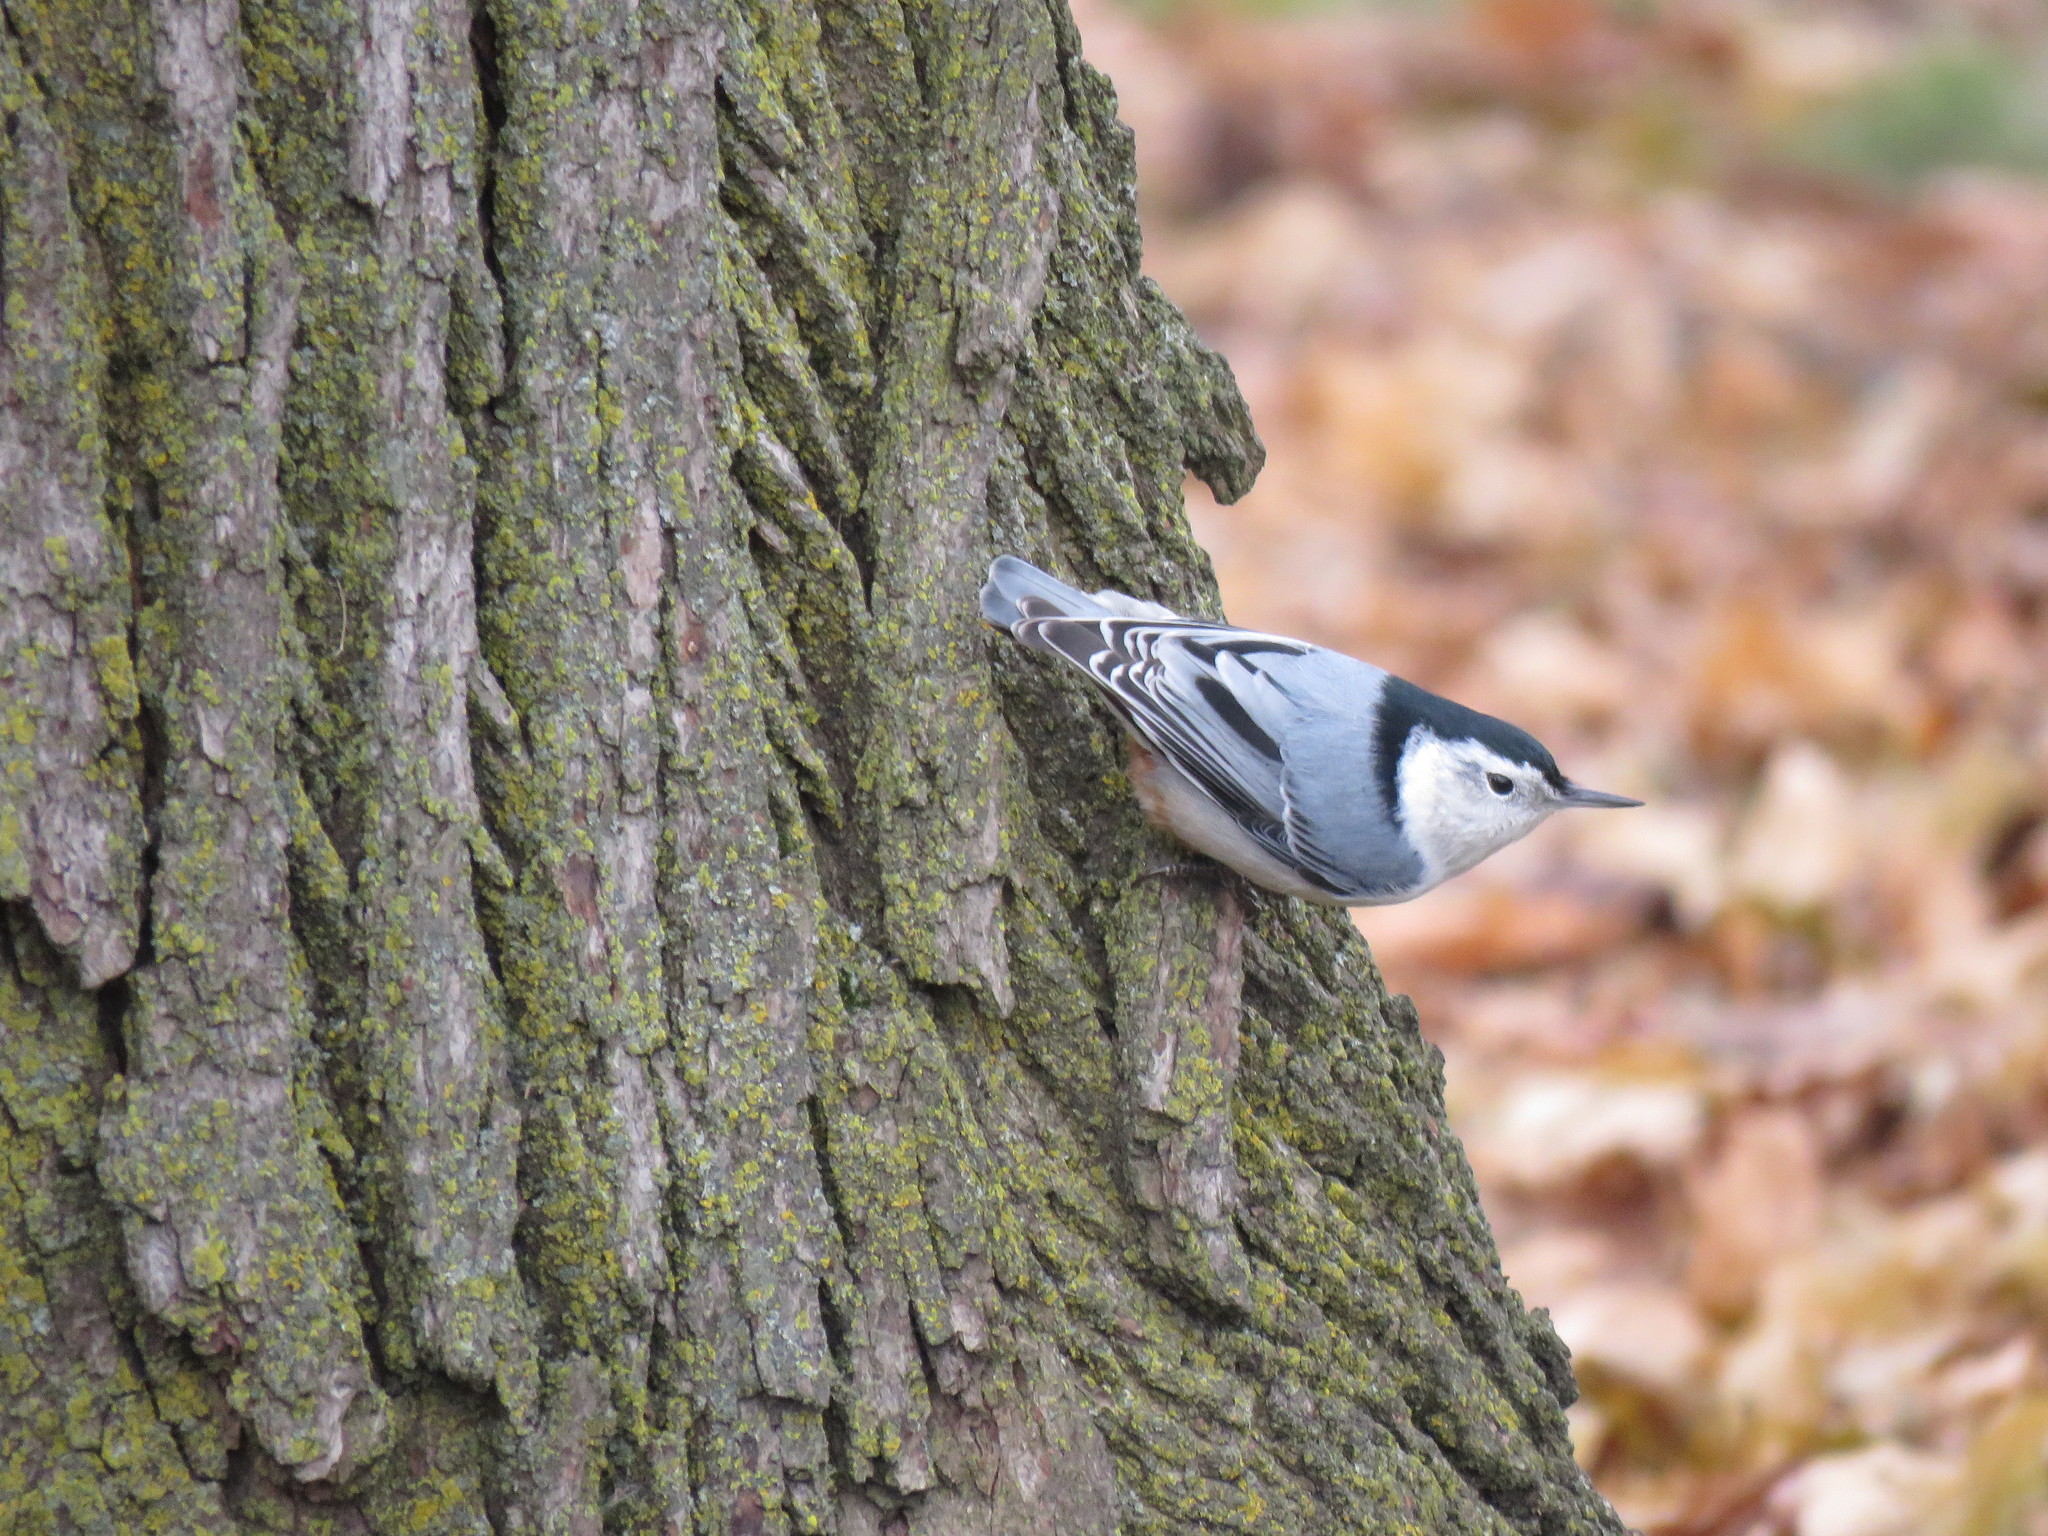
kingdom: Animalia
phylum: Chordata
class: Aves
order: Passeriformes
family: Sittidae
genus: Sitta
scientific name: Sitta carolinensis
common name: White-breasted nuthatch
